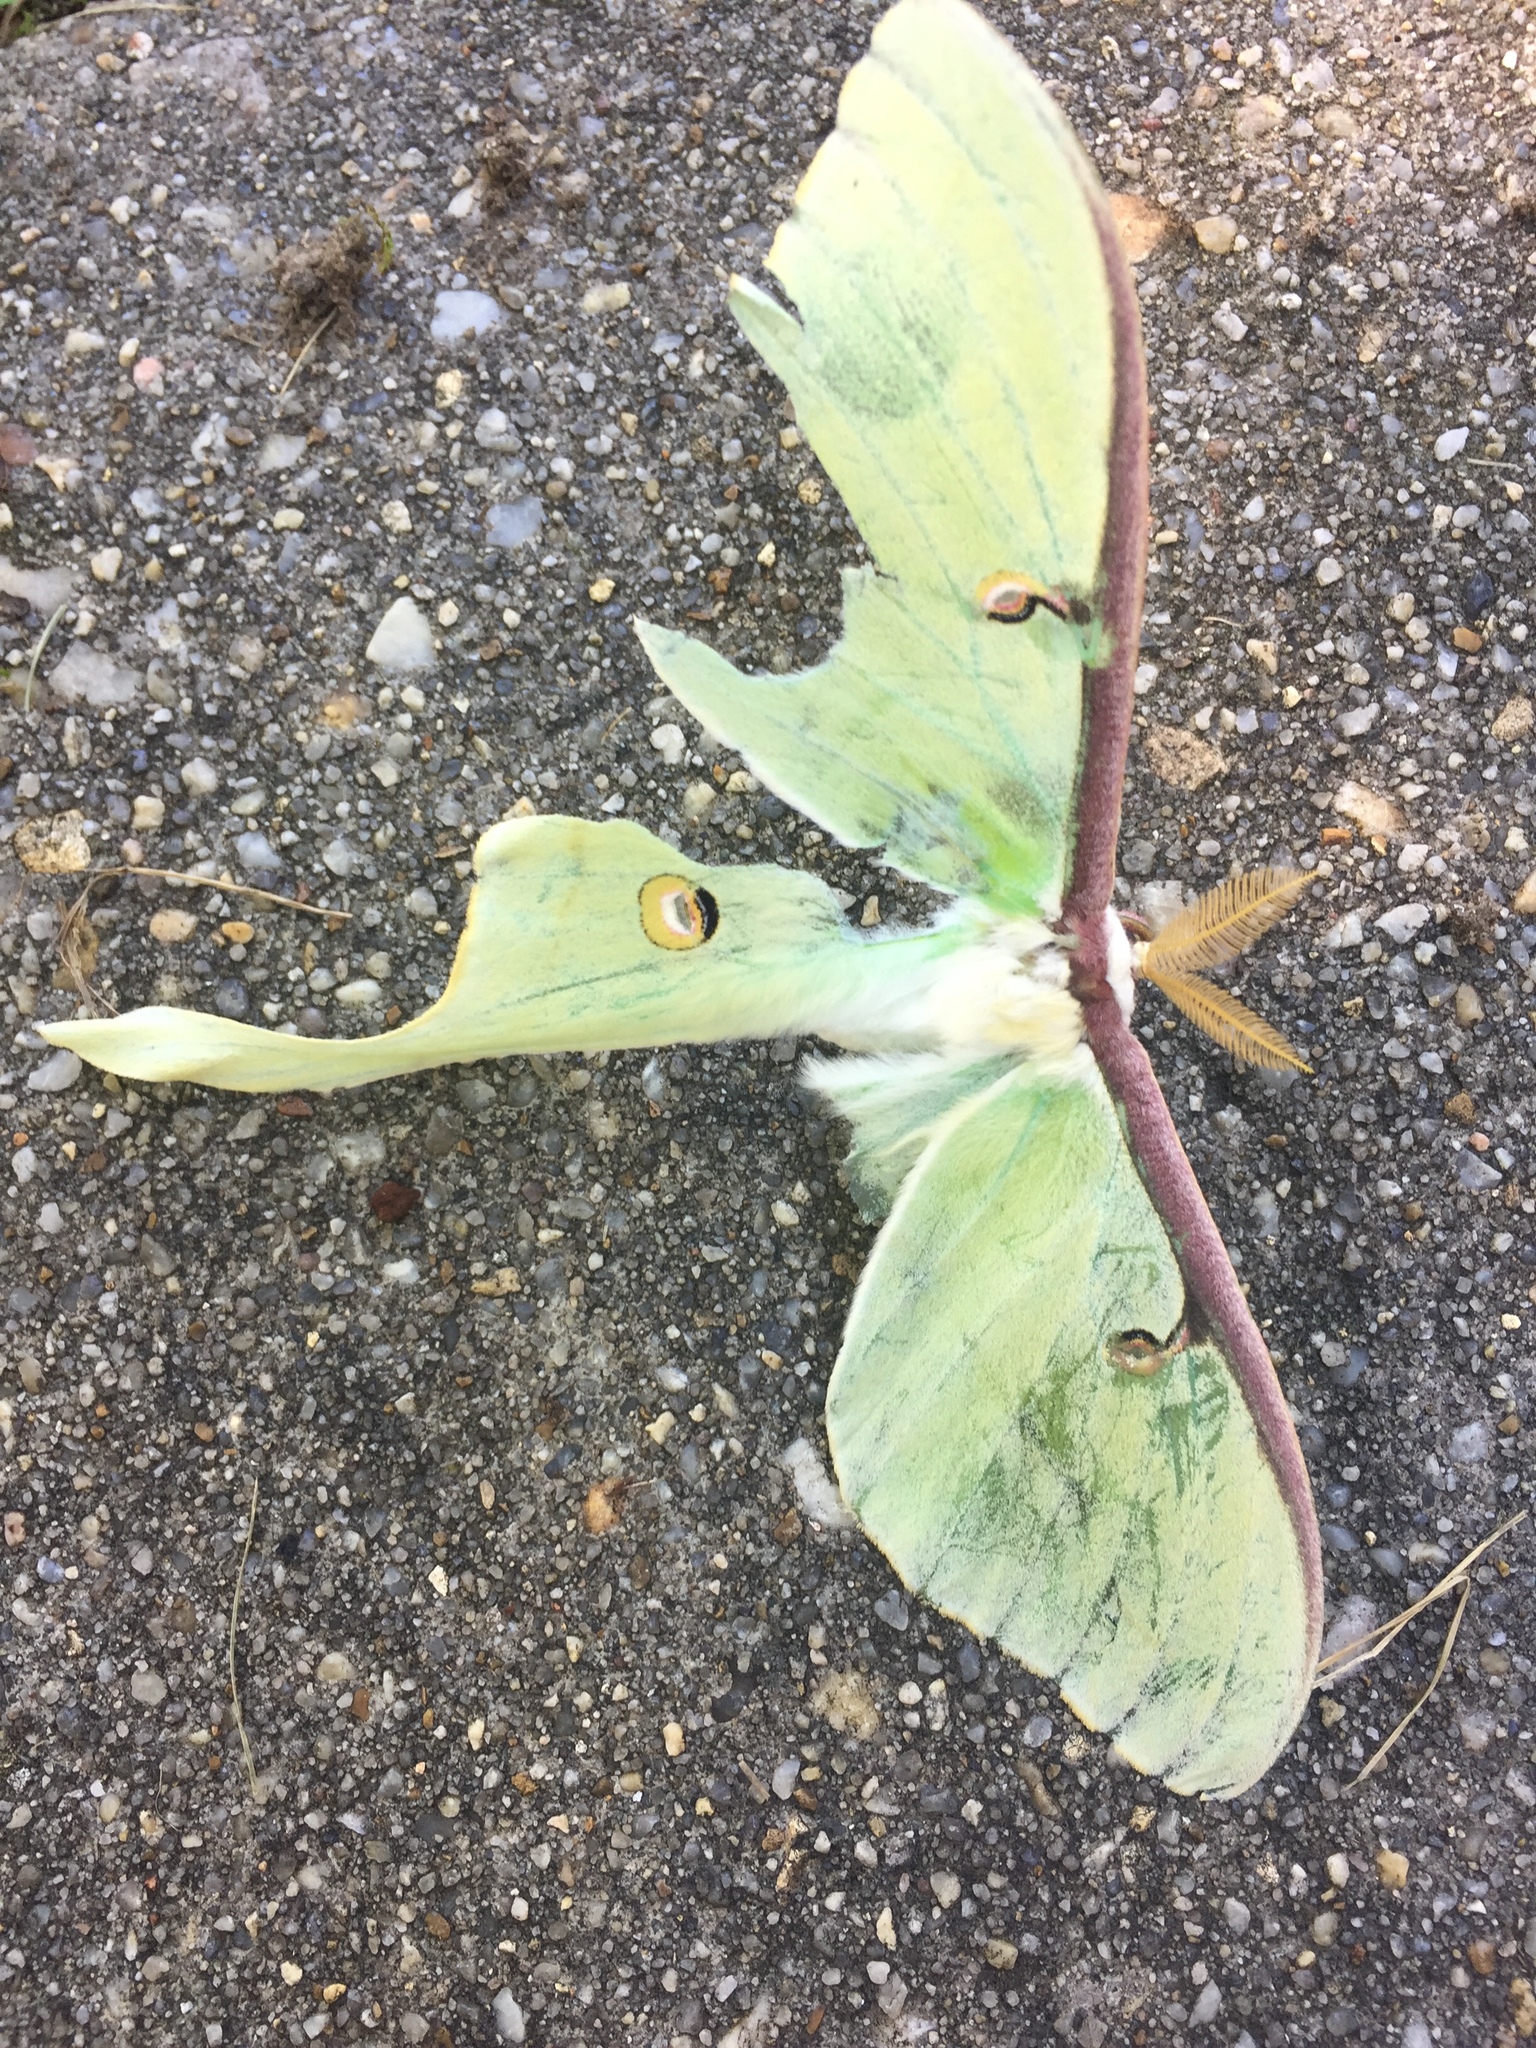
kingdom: Animalia
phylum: Arthropoda
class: Insecta
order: Lepidoptera
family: Saturniidae
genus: Actias
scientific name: Actias luna
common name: Luna moth
